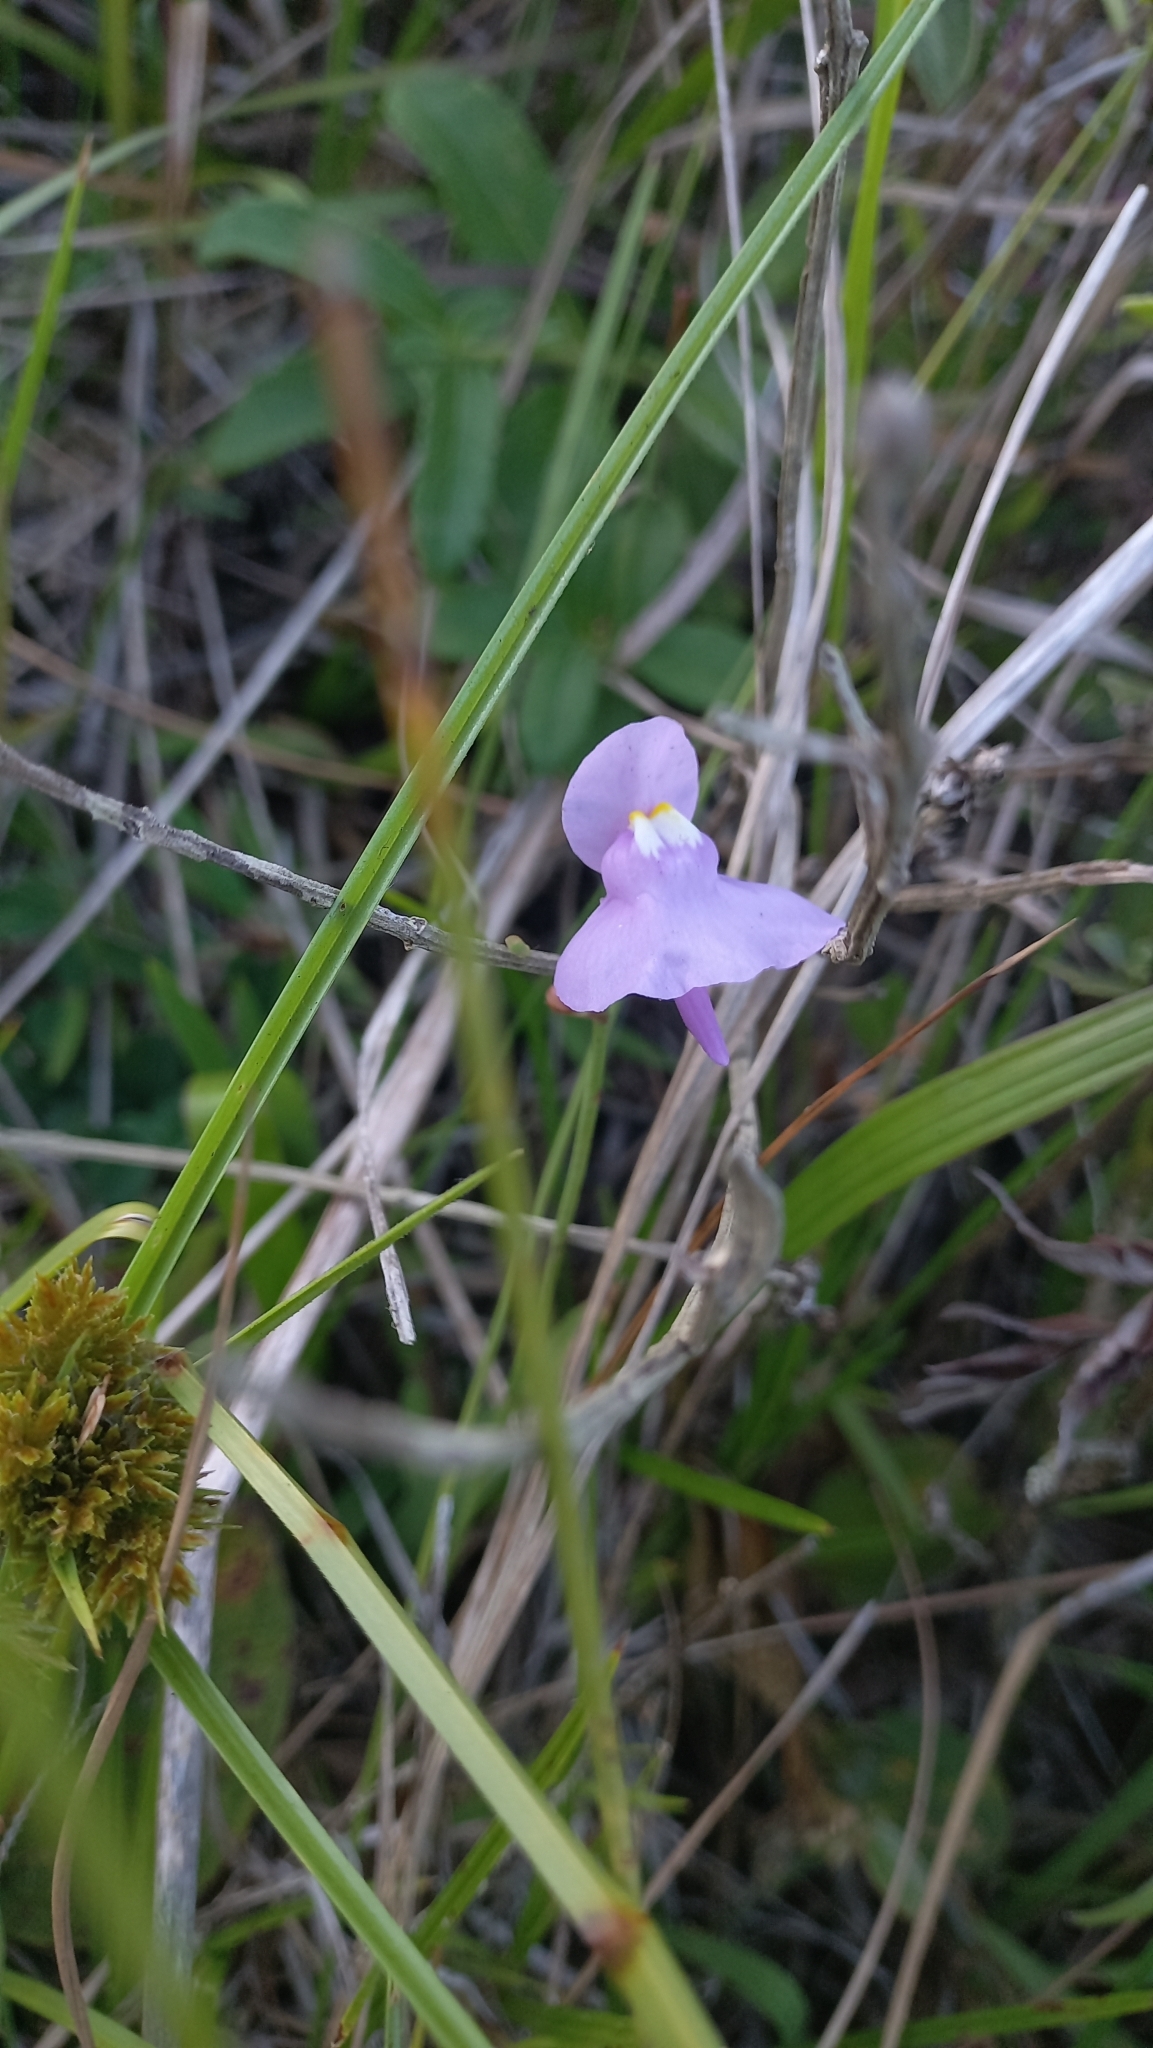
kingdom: Plantae
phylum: Tracheophyta
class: Magnoliopsida
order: Lamiales
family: Lentibulariaceae
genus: Utricularia
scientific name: Utricularia tricolor
